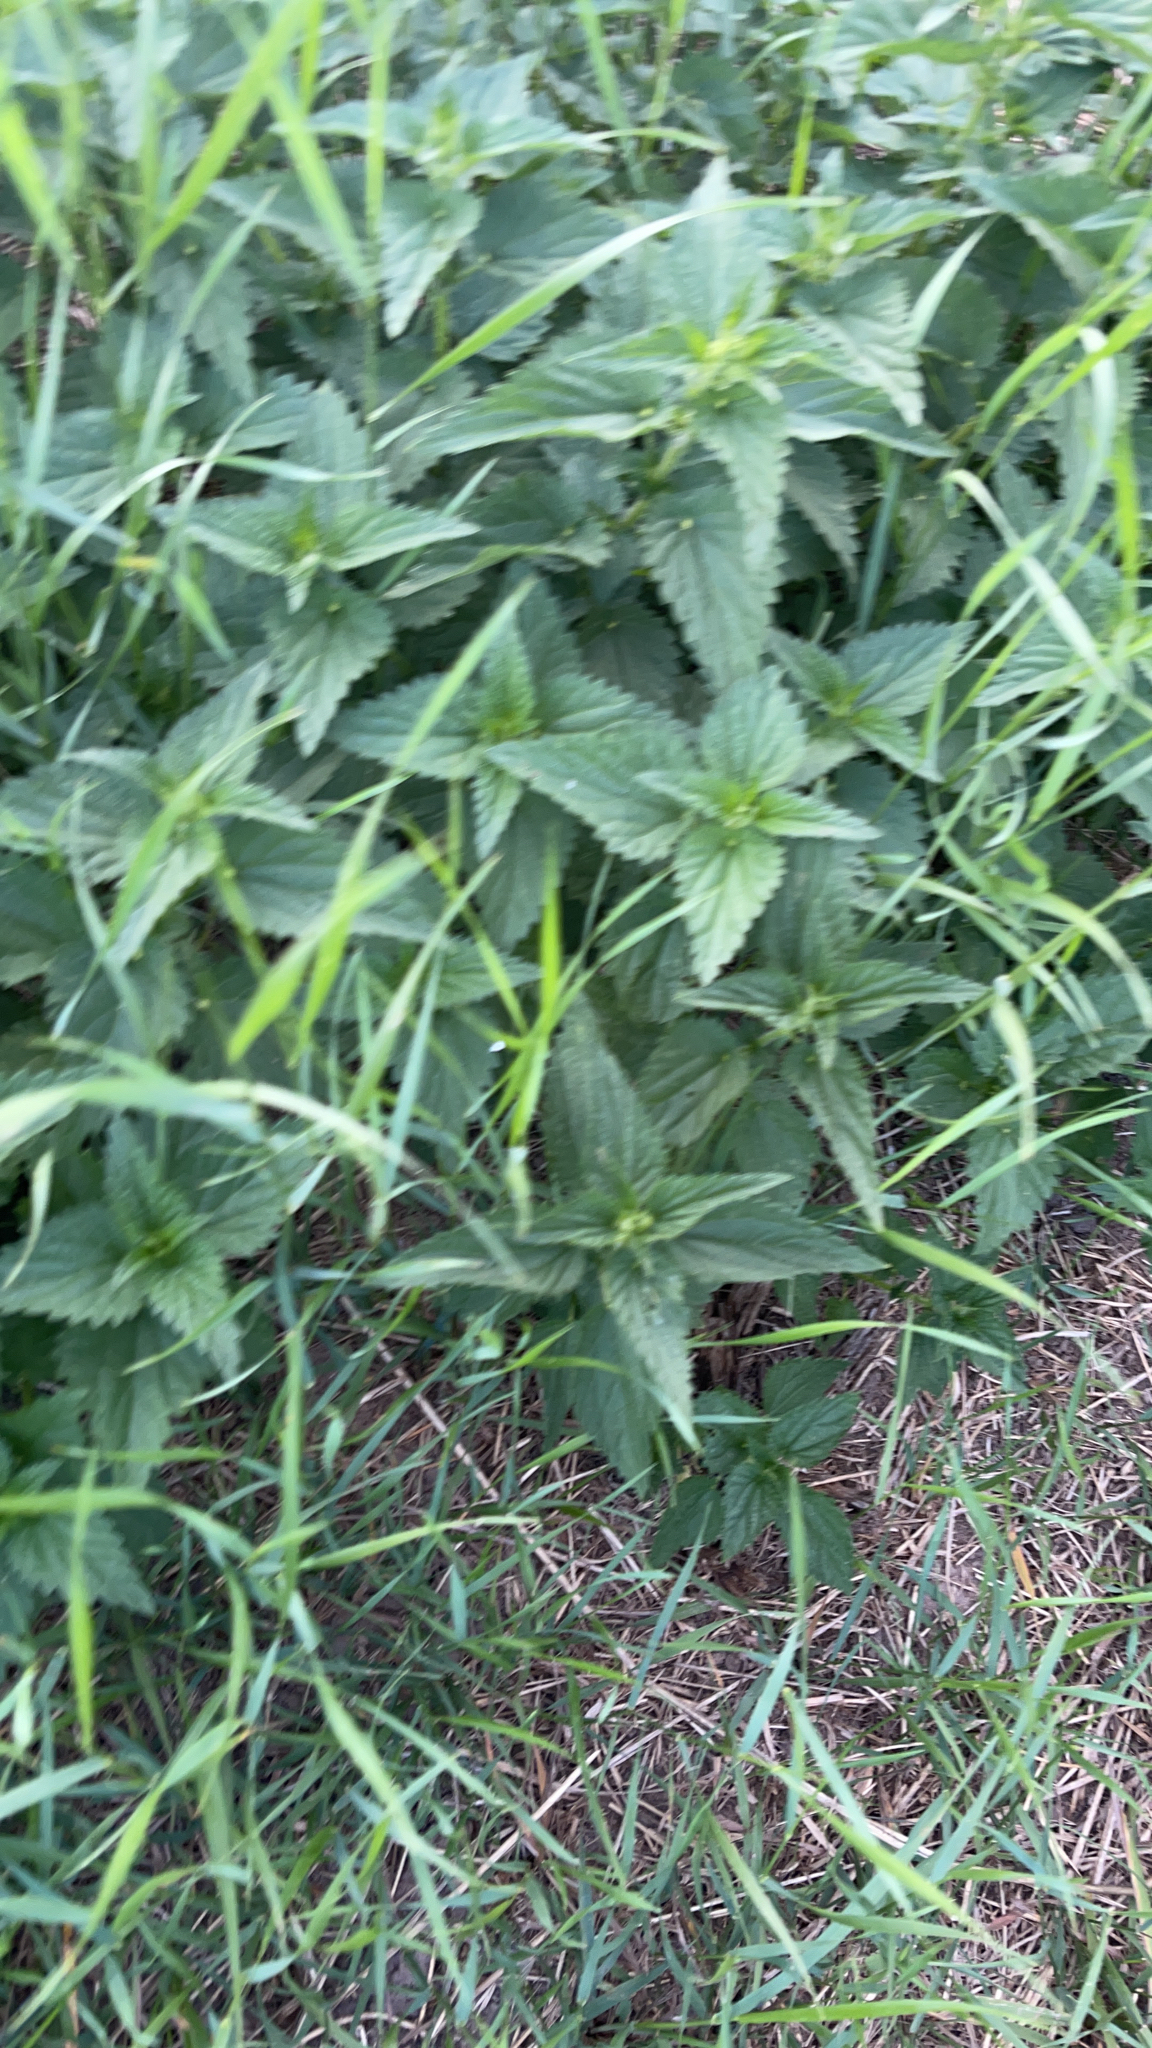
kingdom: Plantae
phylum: Tracheophyta
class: Magnoliopsida
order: Rosales
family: Urticaceae
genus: Urtica
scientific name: Urtica dioica
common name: Common nettle
